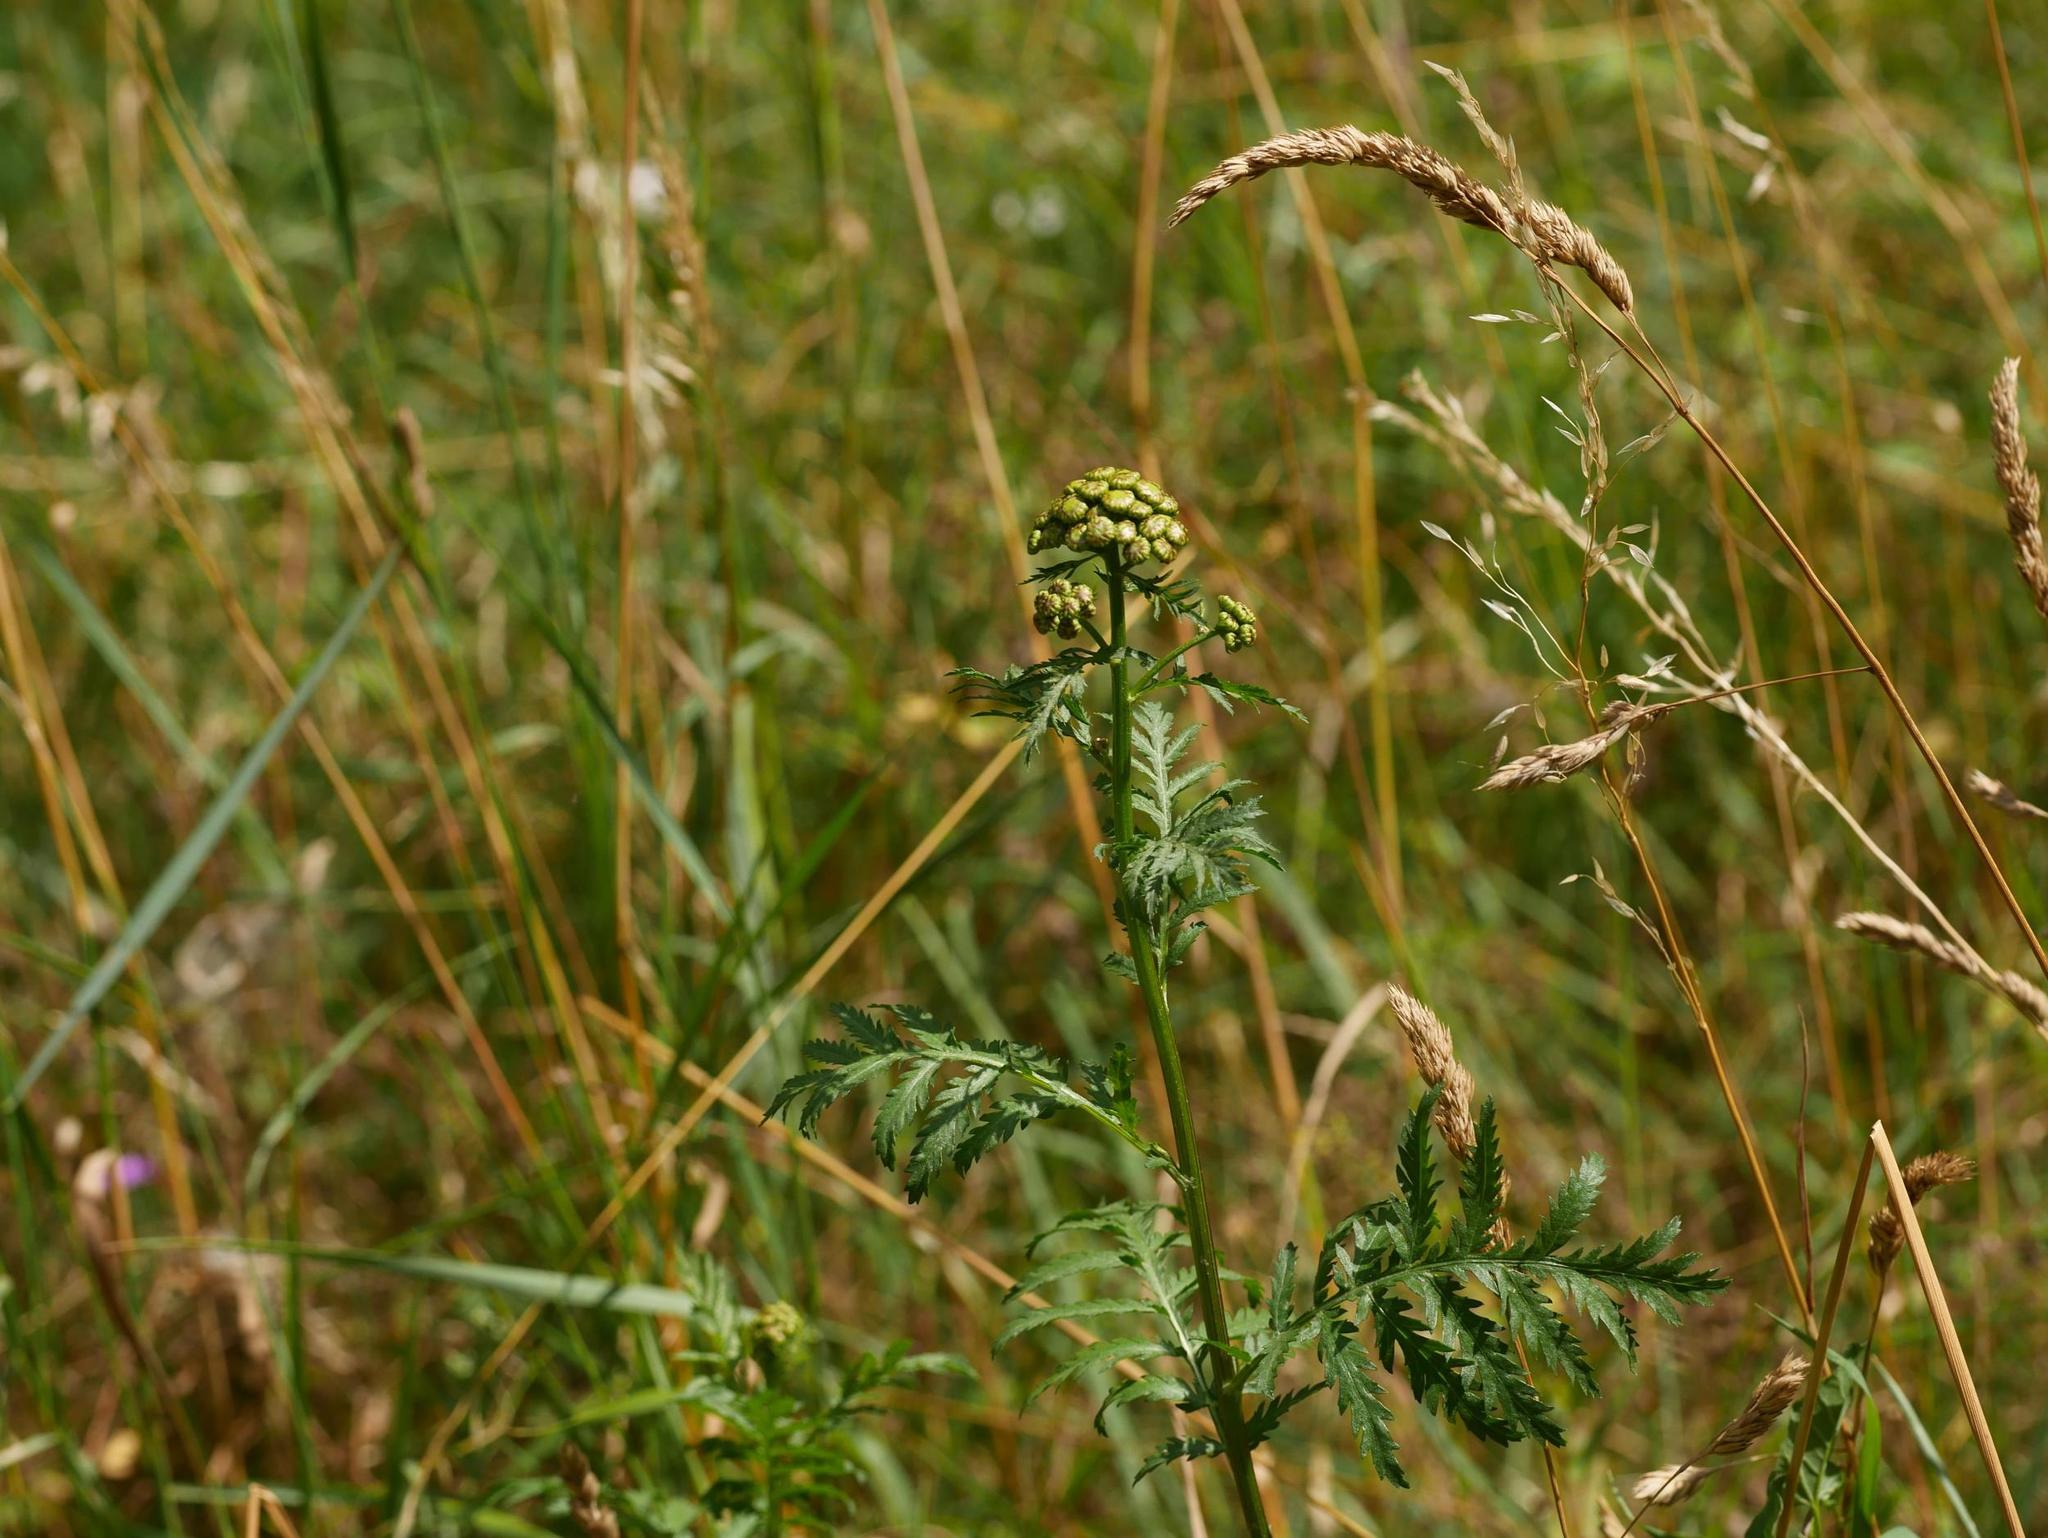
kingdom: Plantae
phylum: Tracheophyta
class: Magnoliopsida
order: Asterales
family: Asteraceae
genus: Tanacetum
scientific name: Tanacetum vulgare
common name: Common tansy
